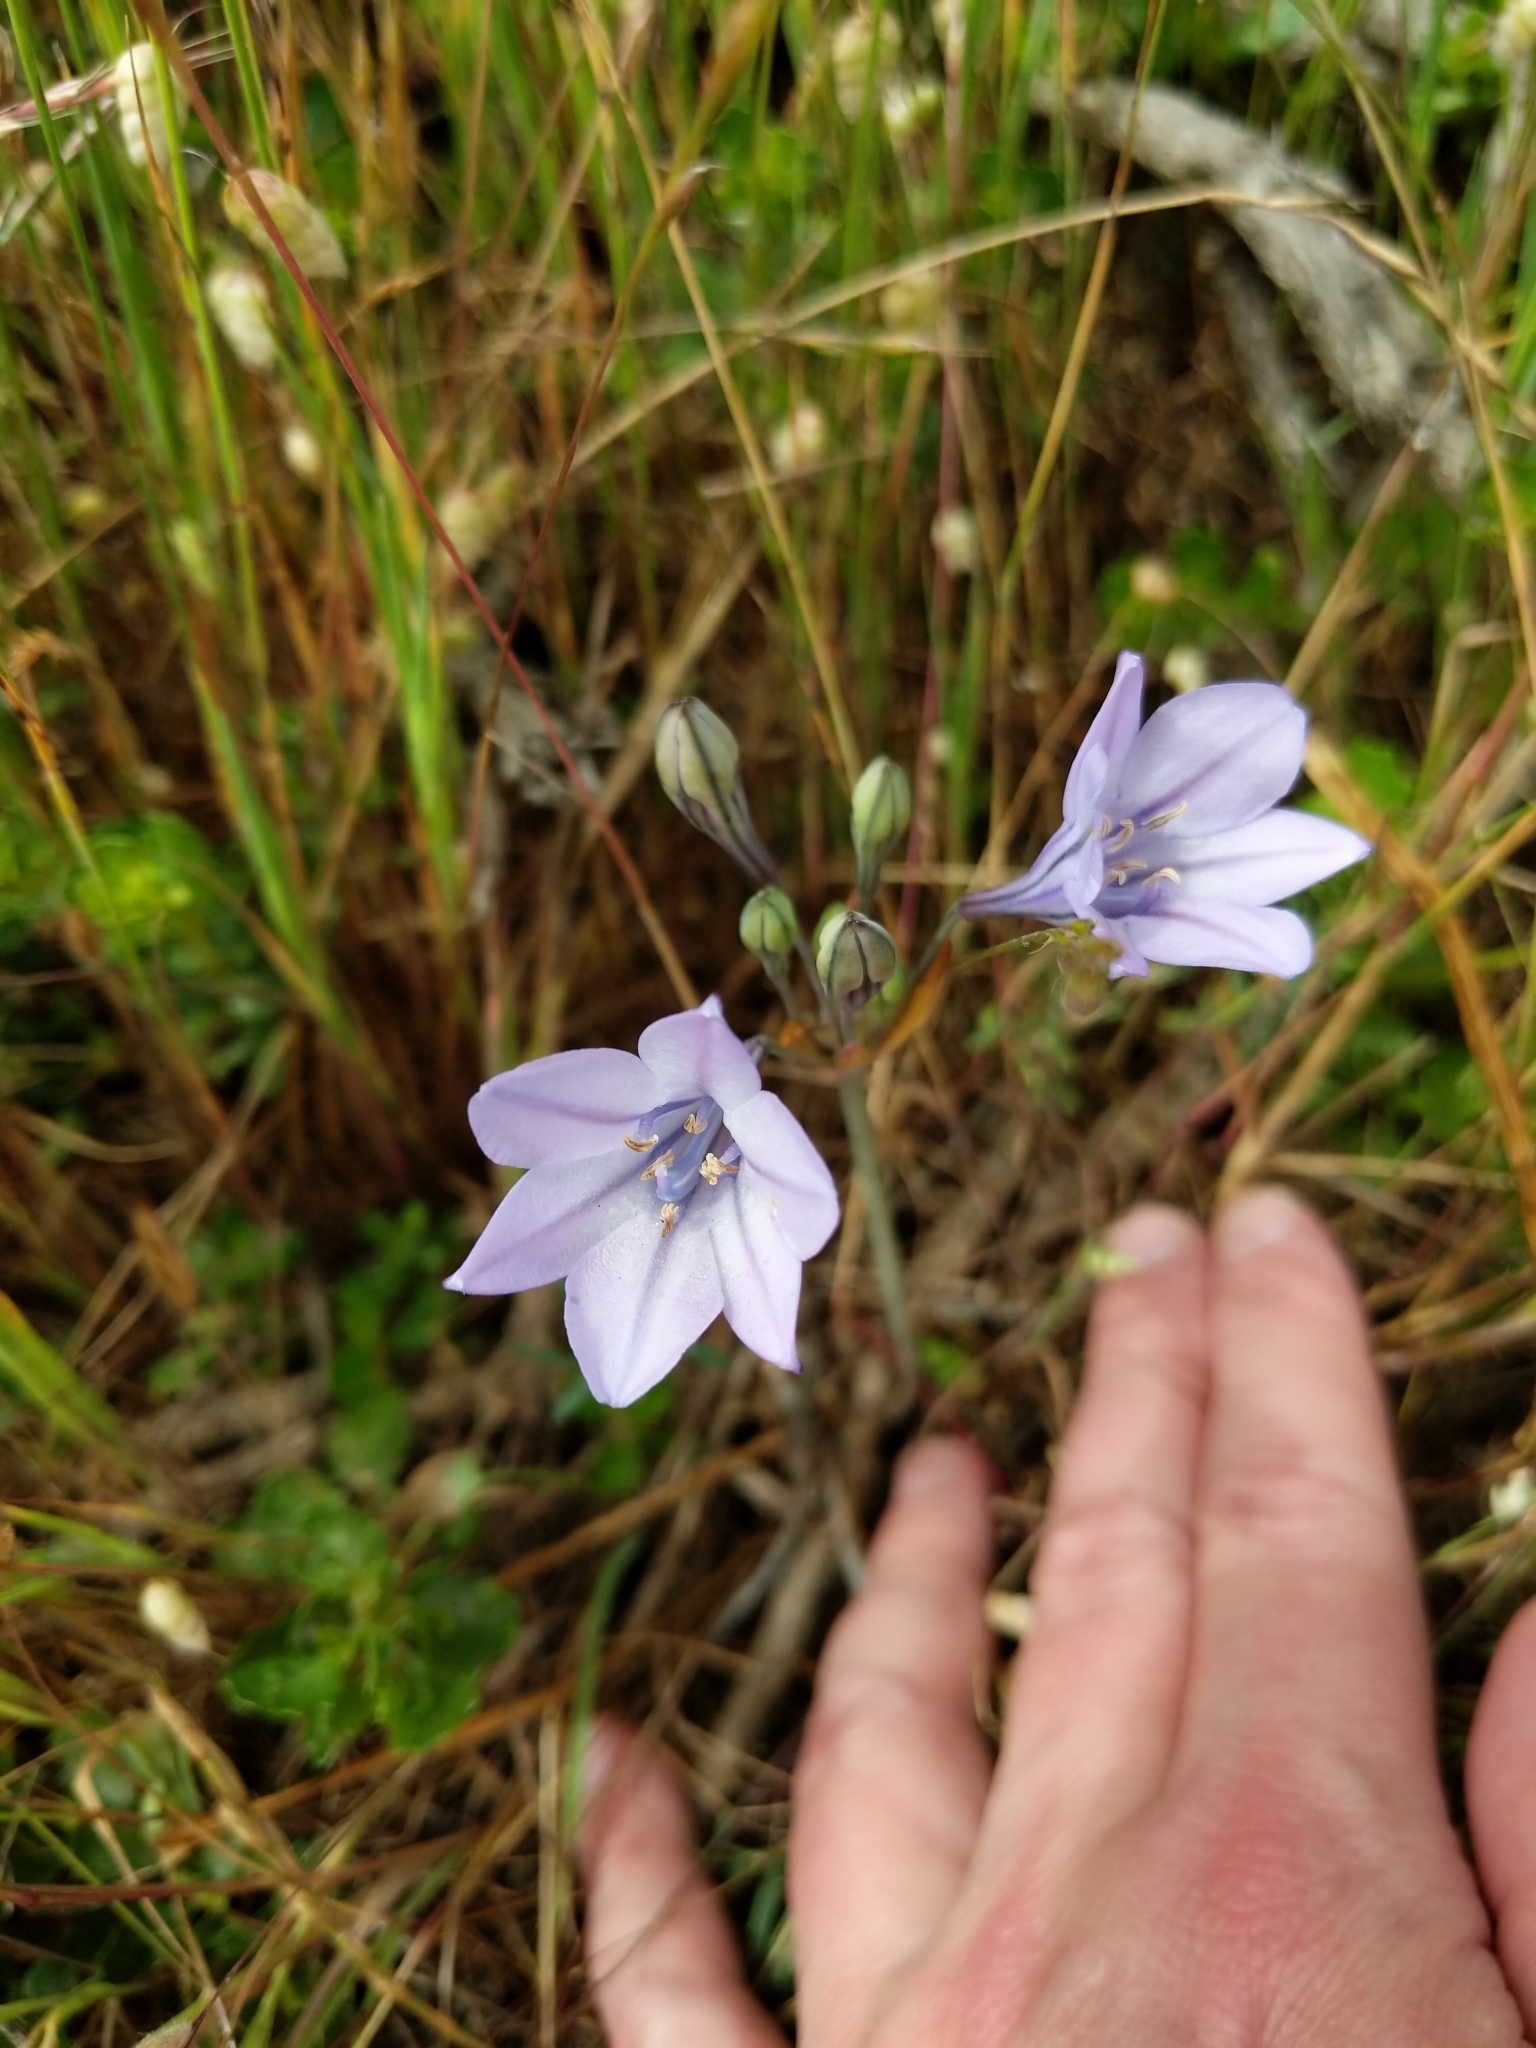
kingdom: Plantae
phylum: Tracheophyta
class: Liliopsida
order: Asparagales
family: Asparagaceae
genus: Triteleia
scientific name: Triteleia laxa
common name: Triplet-lily
